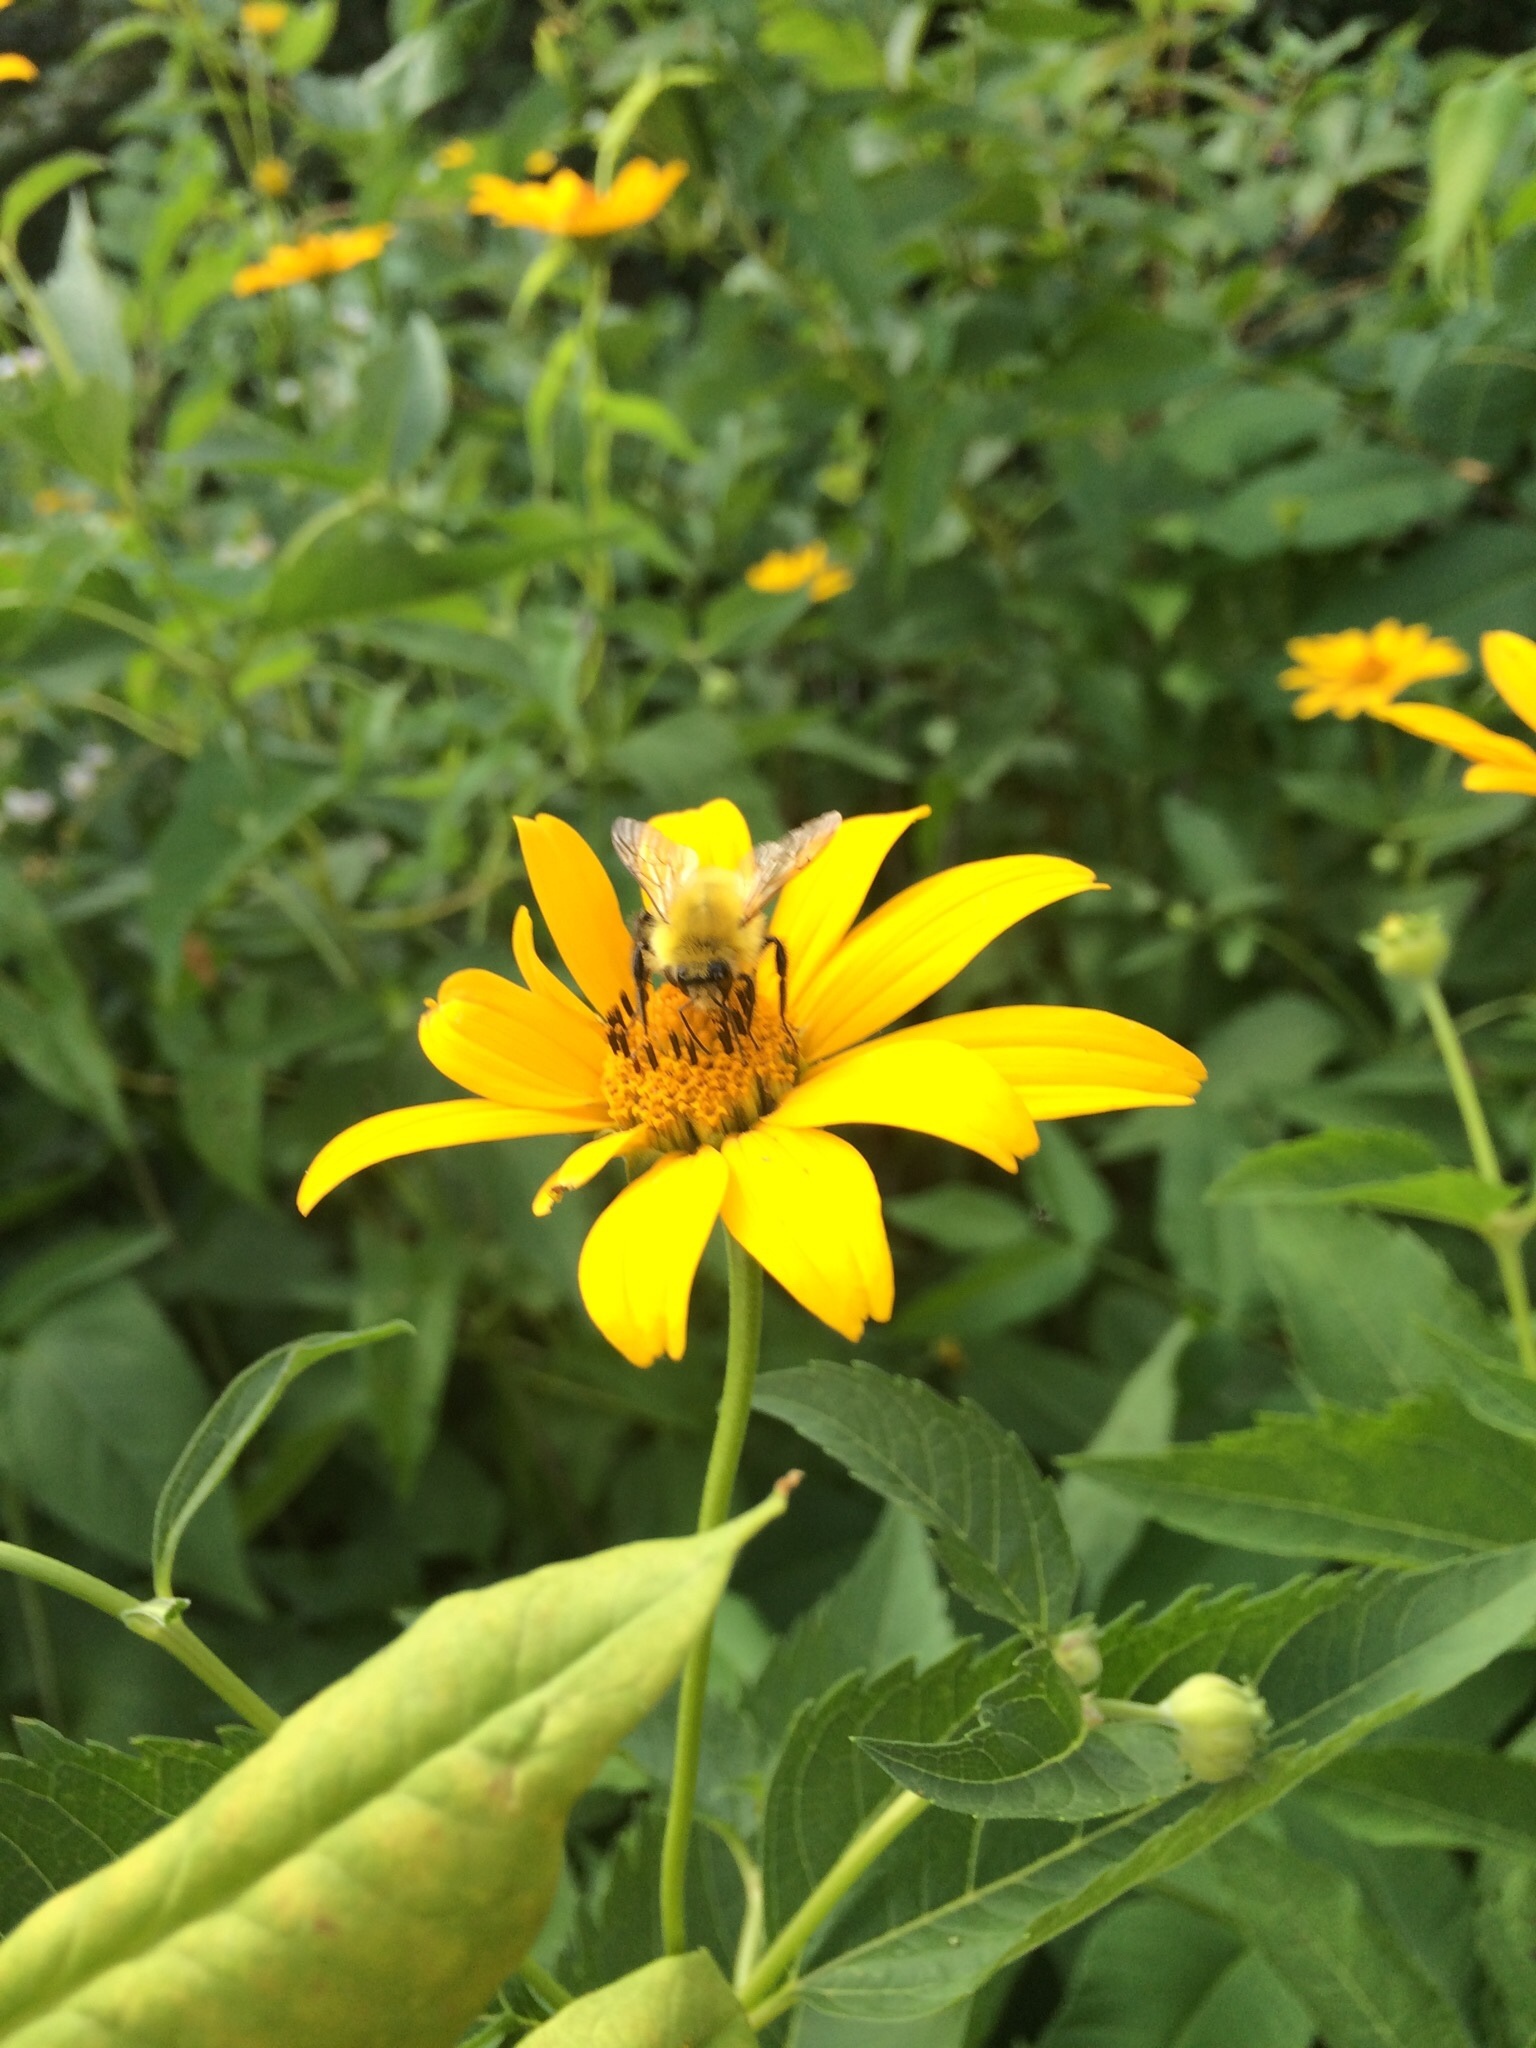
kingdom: Animalia
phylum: Arthropoda
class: Insecta
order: Hymenoptera
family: Apidae
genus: Bombus
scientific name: Bombus perplexus
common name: Confusing bumble bee
